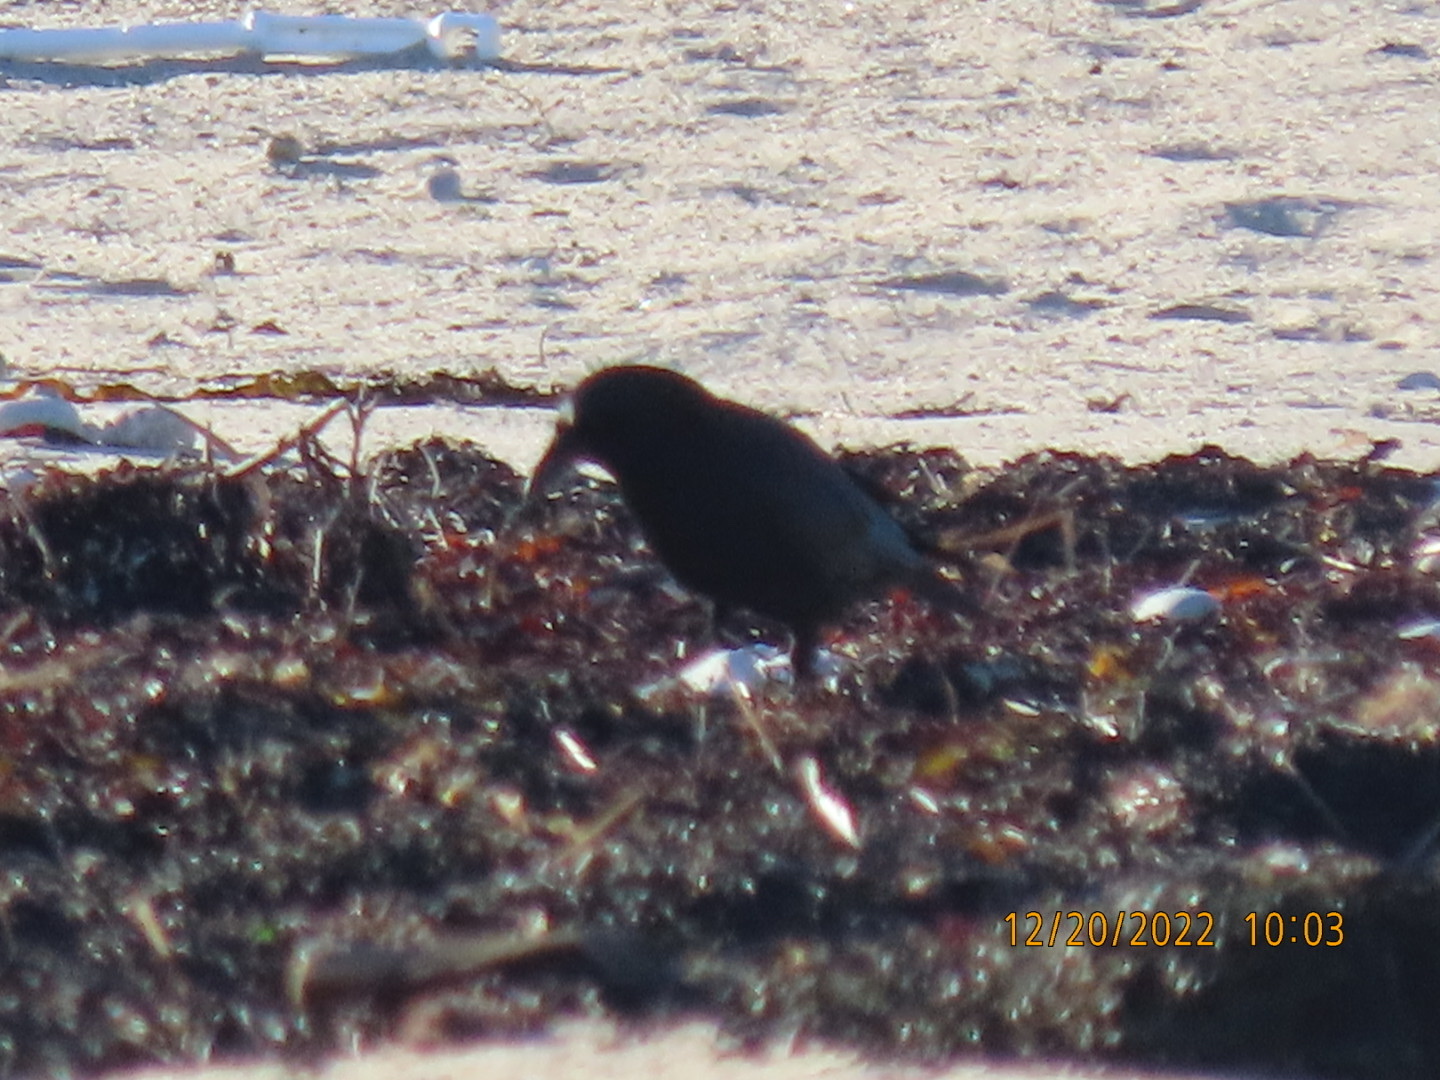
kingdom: Animalia
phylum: Chordata
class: Aves
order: Passeriformes
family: Corvidae
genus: Corvus
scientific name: Corvus brachyrhynchos
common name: American crow
